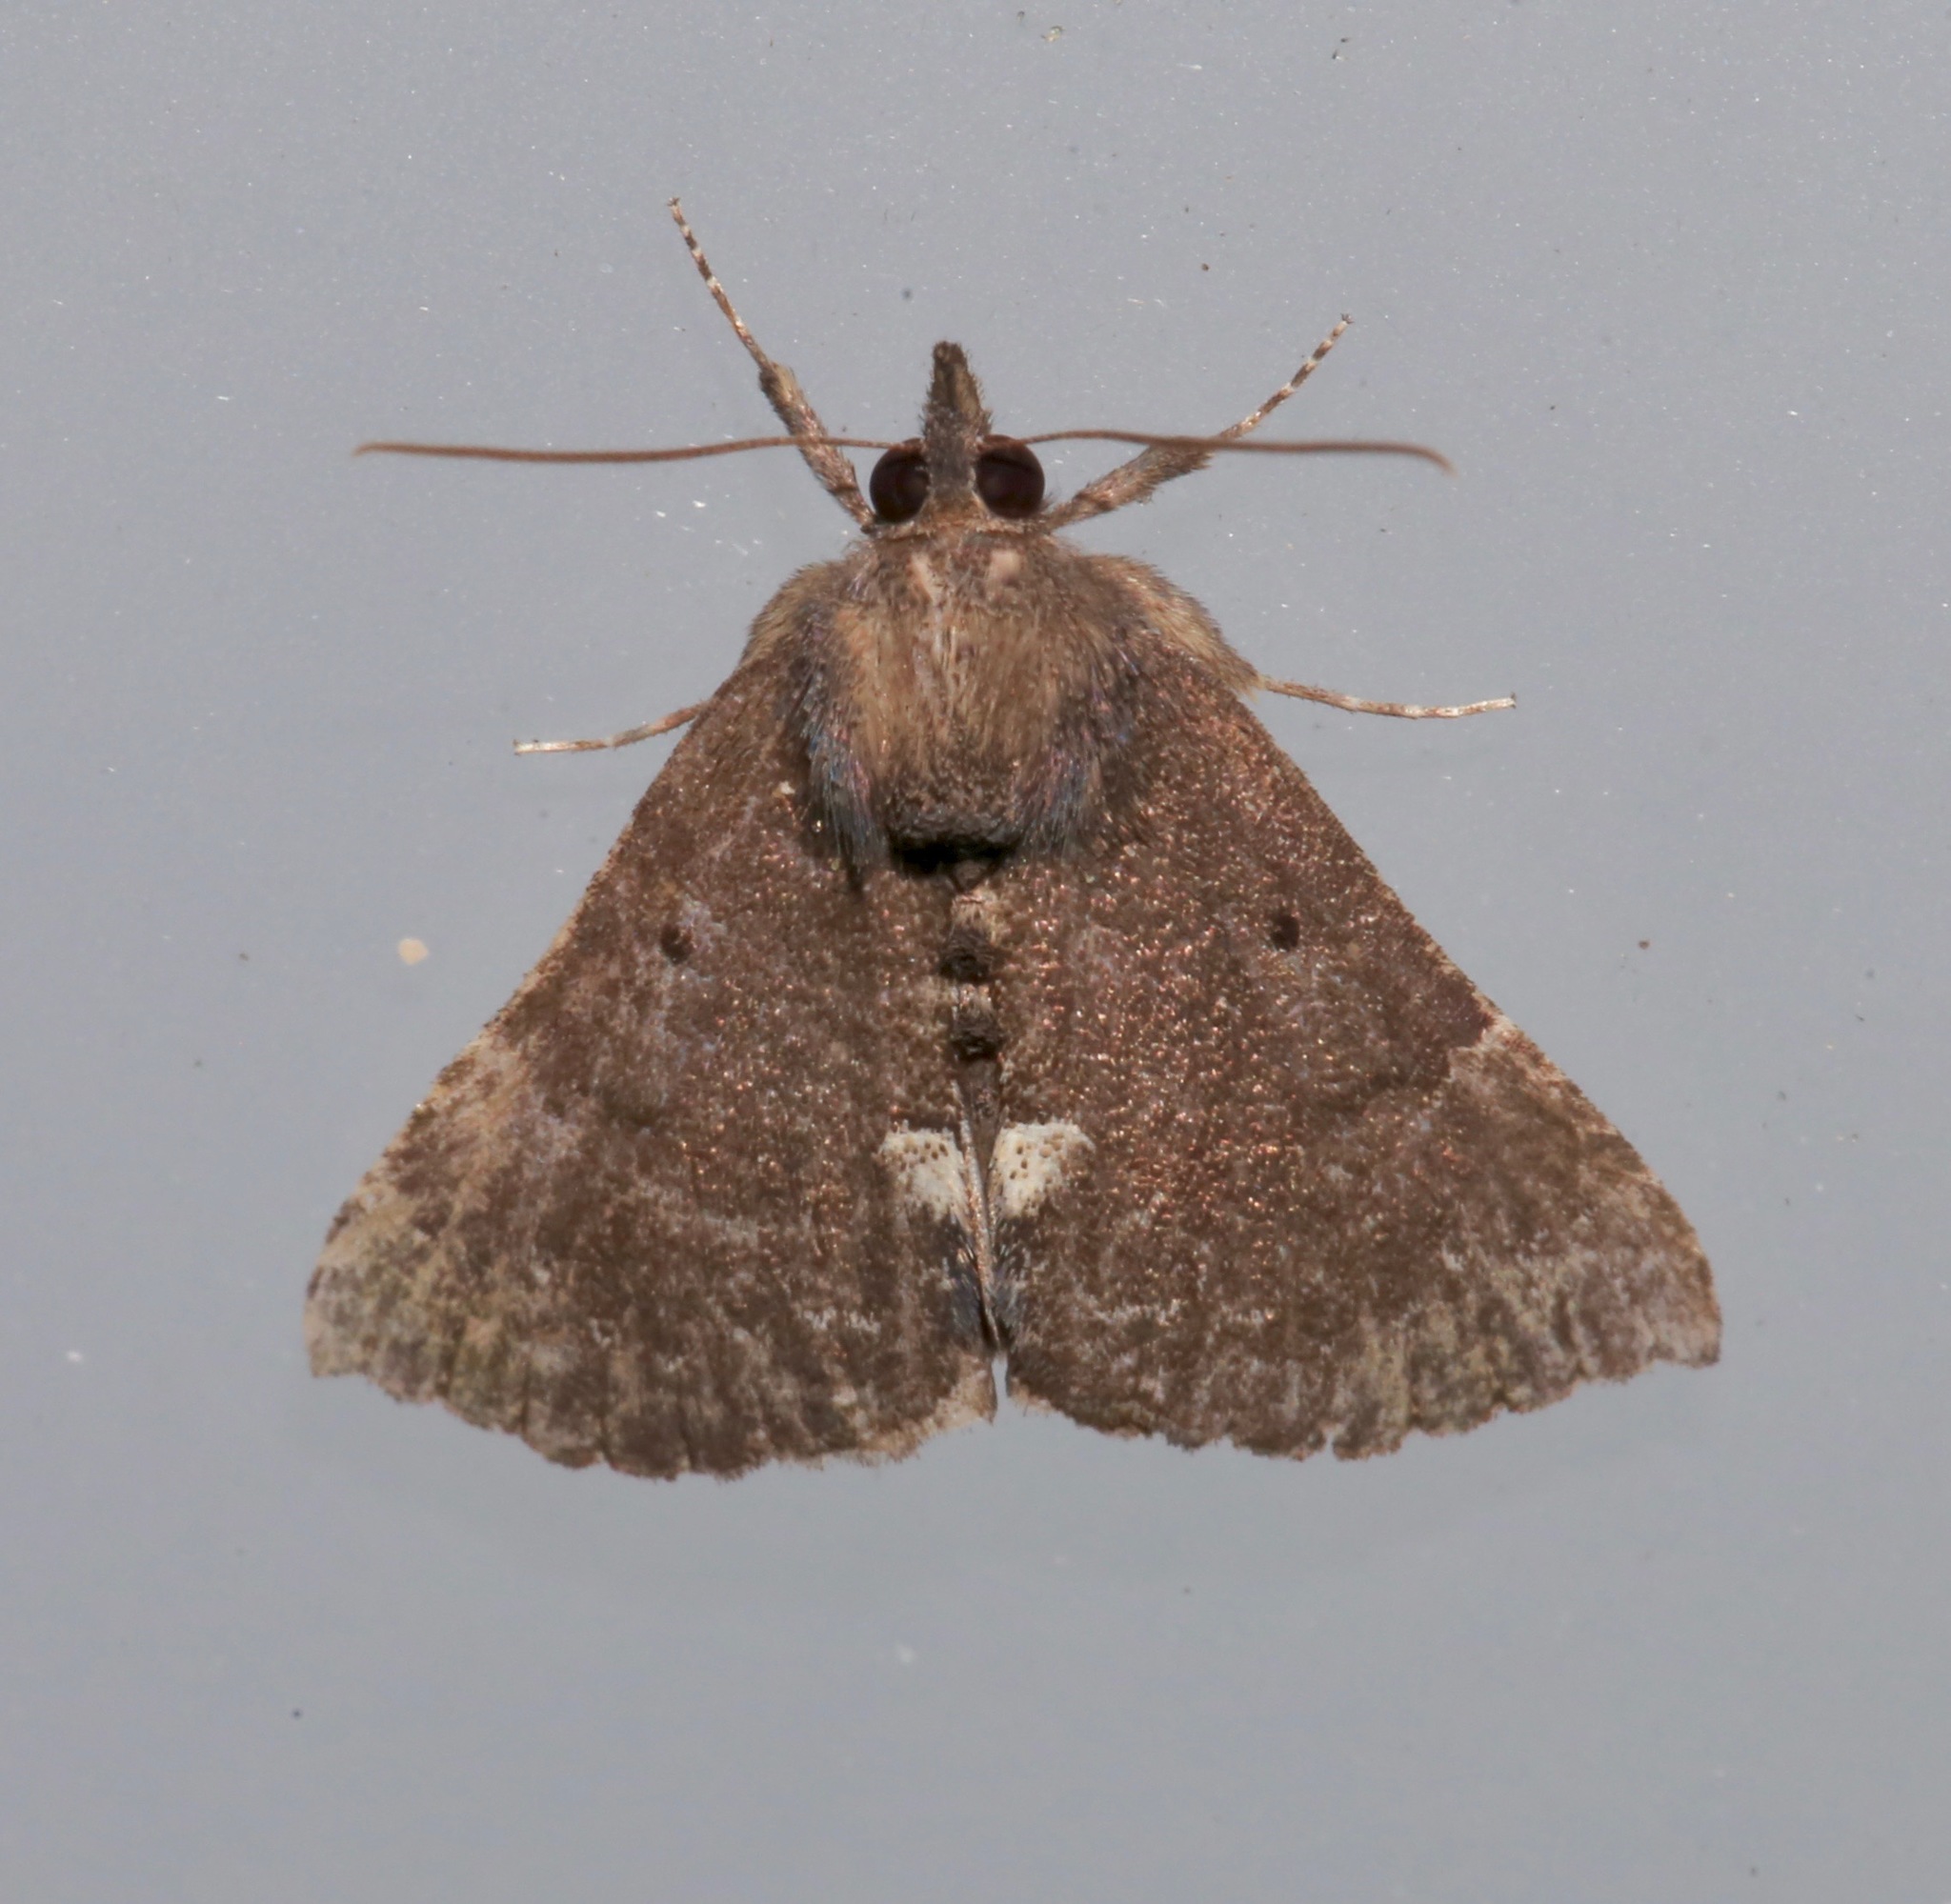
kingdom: Animalia
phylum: Arthropoda
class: Insecta
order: Lepidoptera
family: Erebidae
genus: Hypena
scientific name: Hypena bijugalis
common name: Dimorphic bomolocha moth
